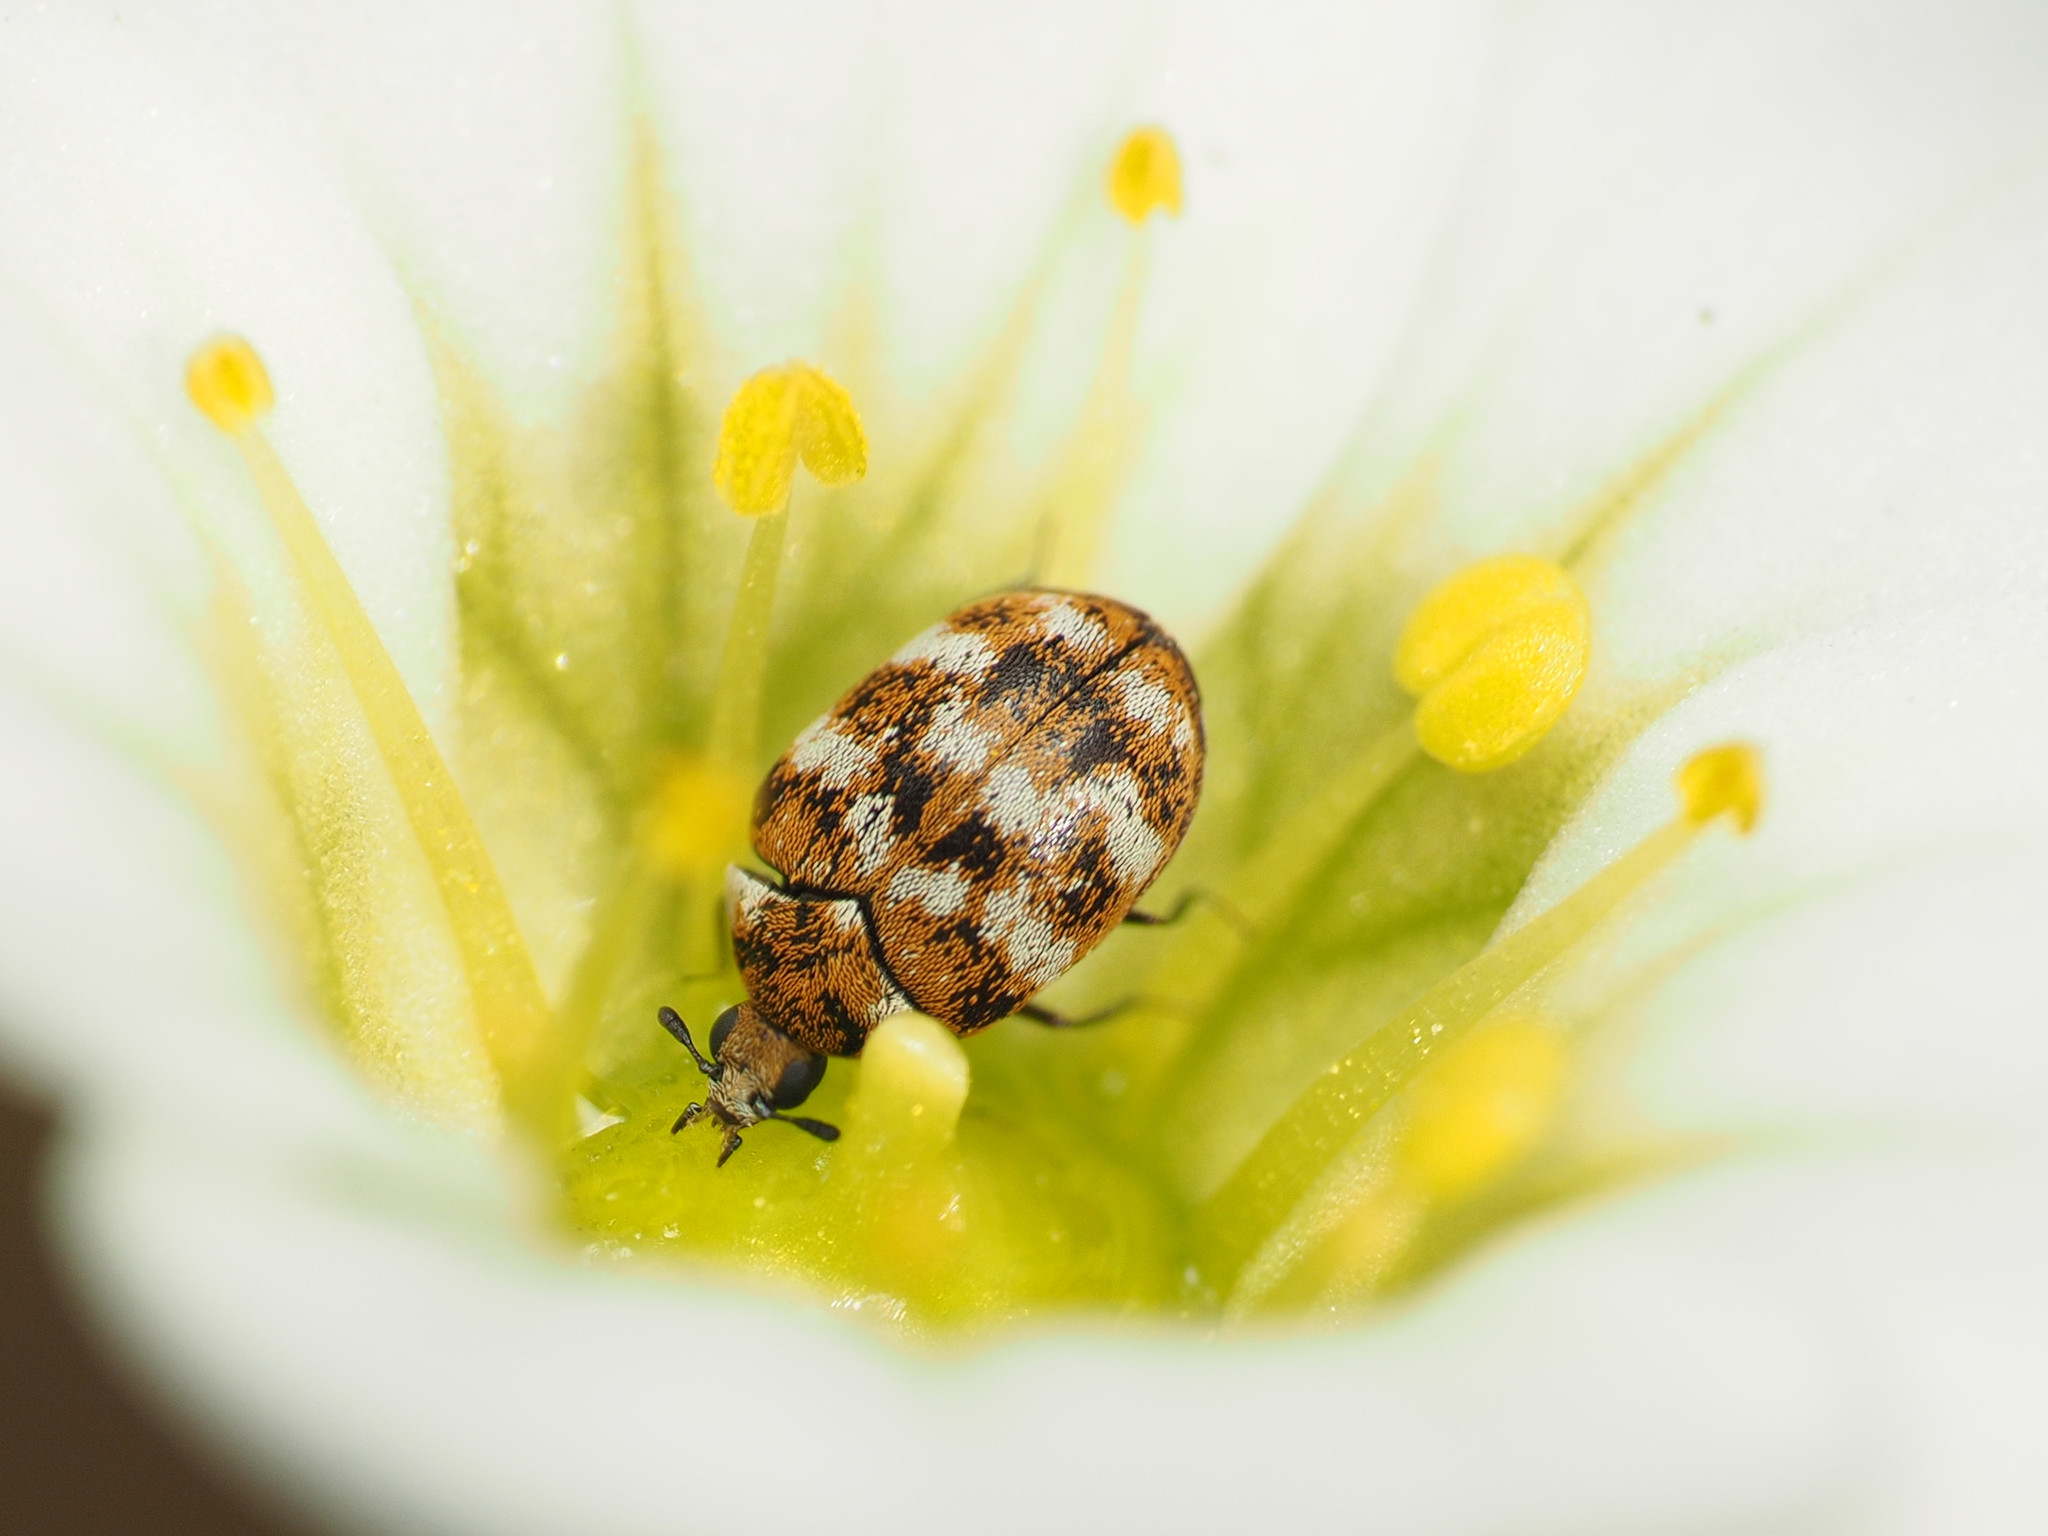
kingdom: Animalia
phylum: Arthropoda
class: Insecta
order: Coleoptera
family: Dermestidae
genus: Anthrenus
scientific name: Anthrenus verbasci
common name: Varied carpet beetle
